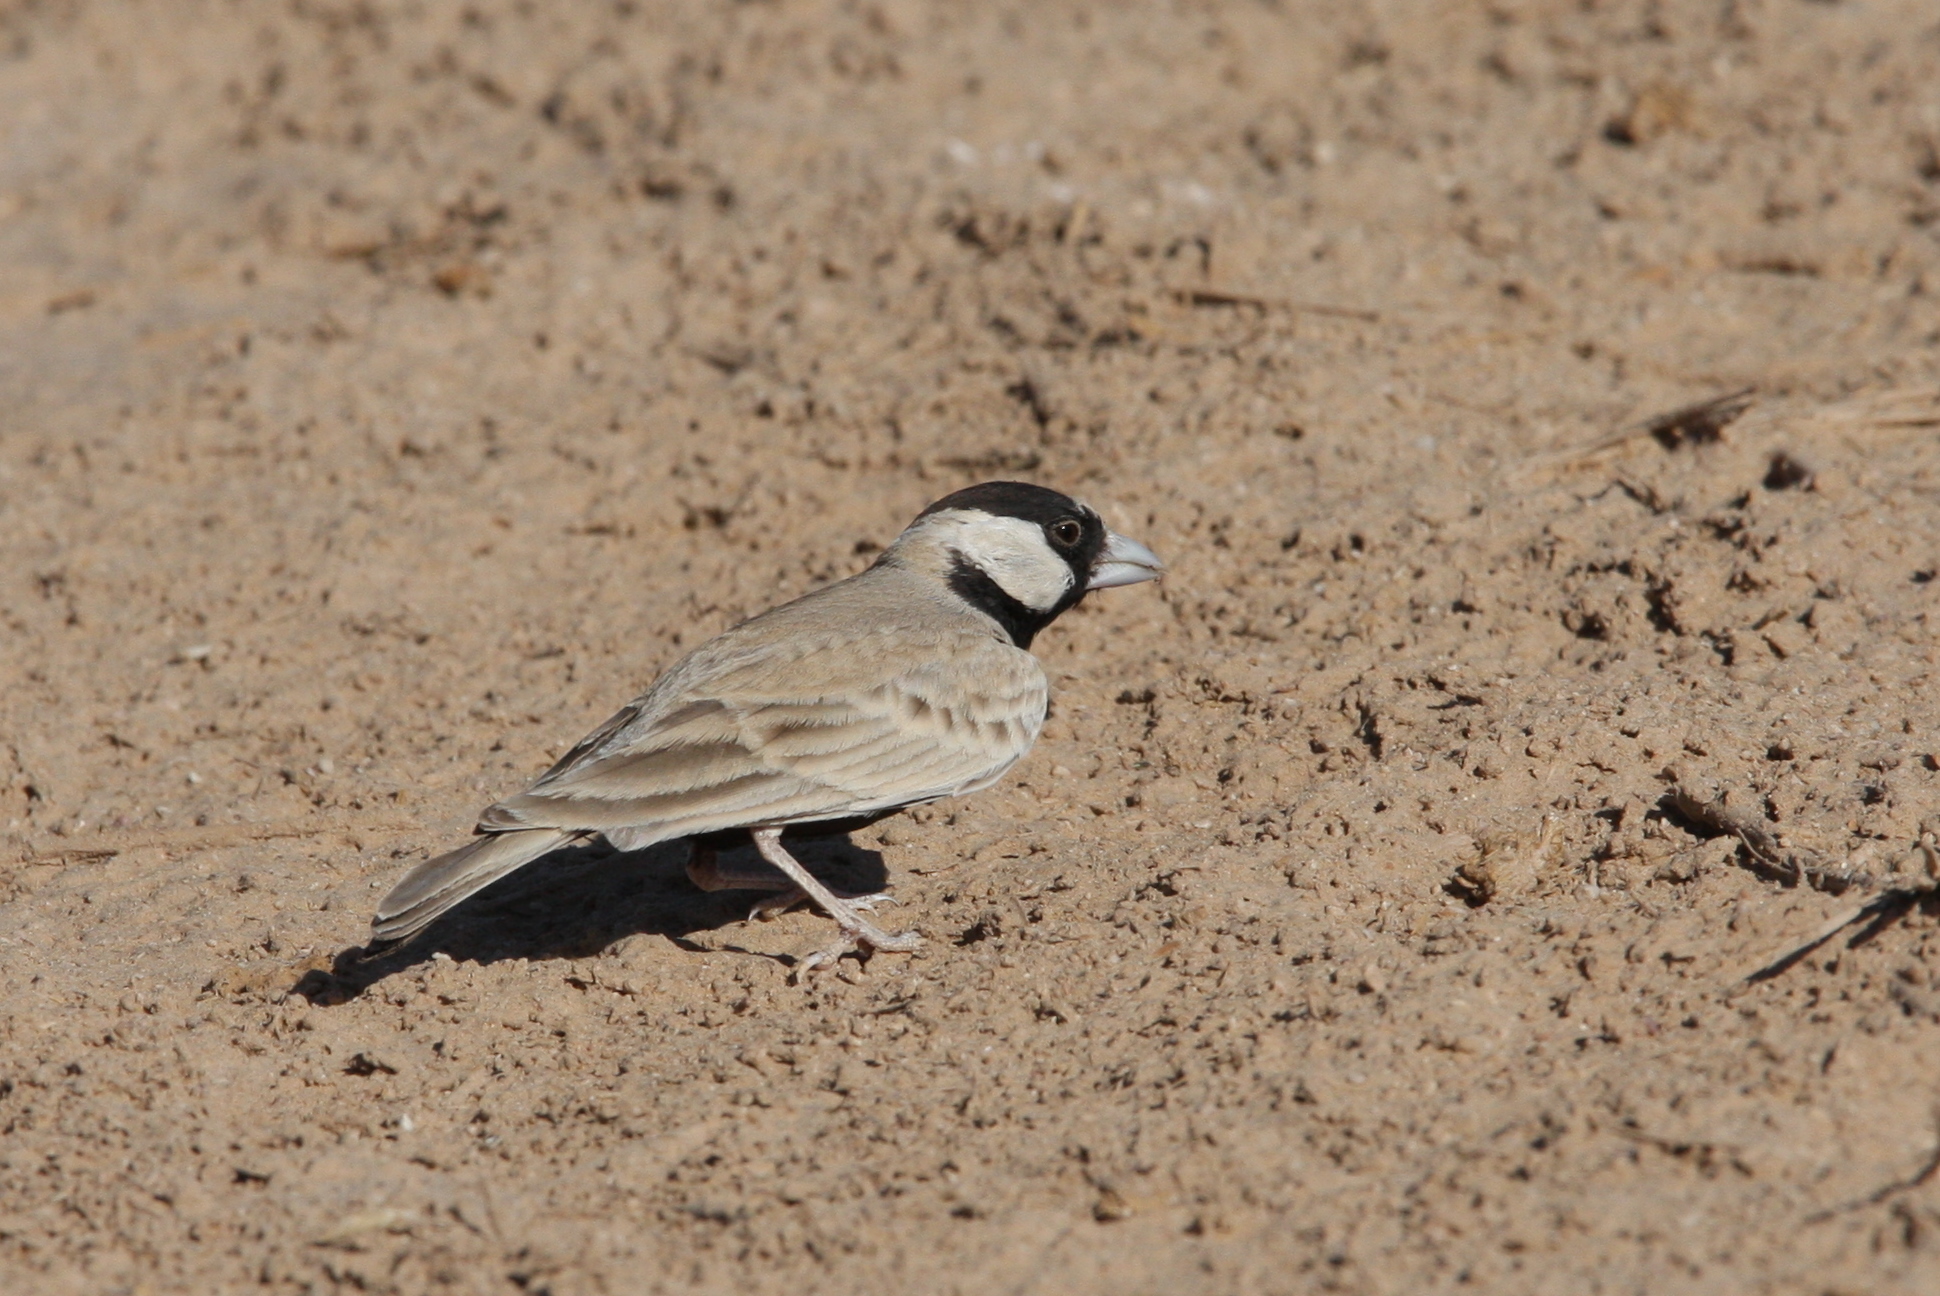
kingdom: Animalia
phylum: Chordata
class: Aves
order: Passeriformes
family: Alaudidae
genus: Eremopterix
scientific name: Eremopterix nigriceps
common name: Black-crowned sparrow-lark
